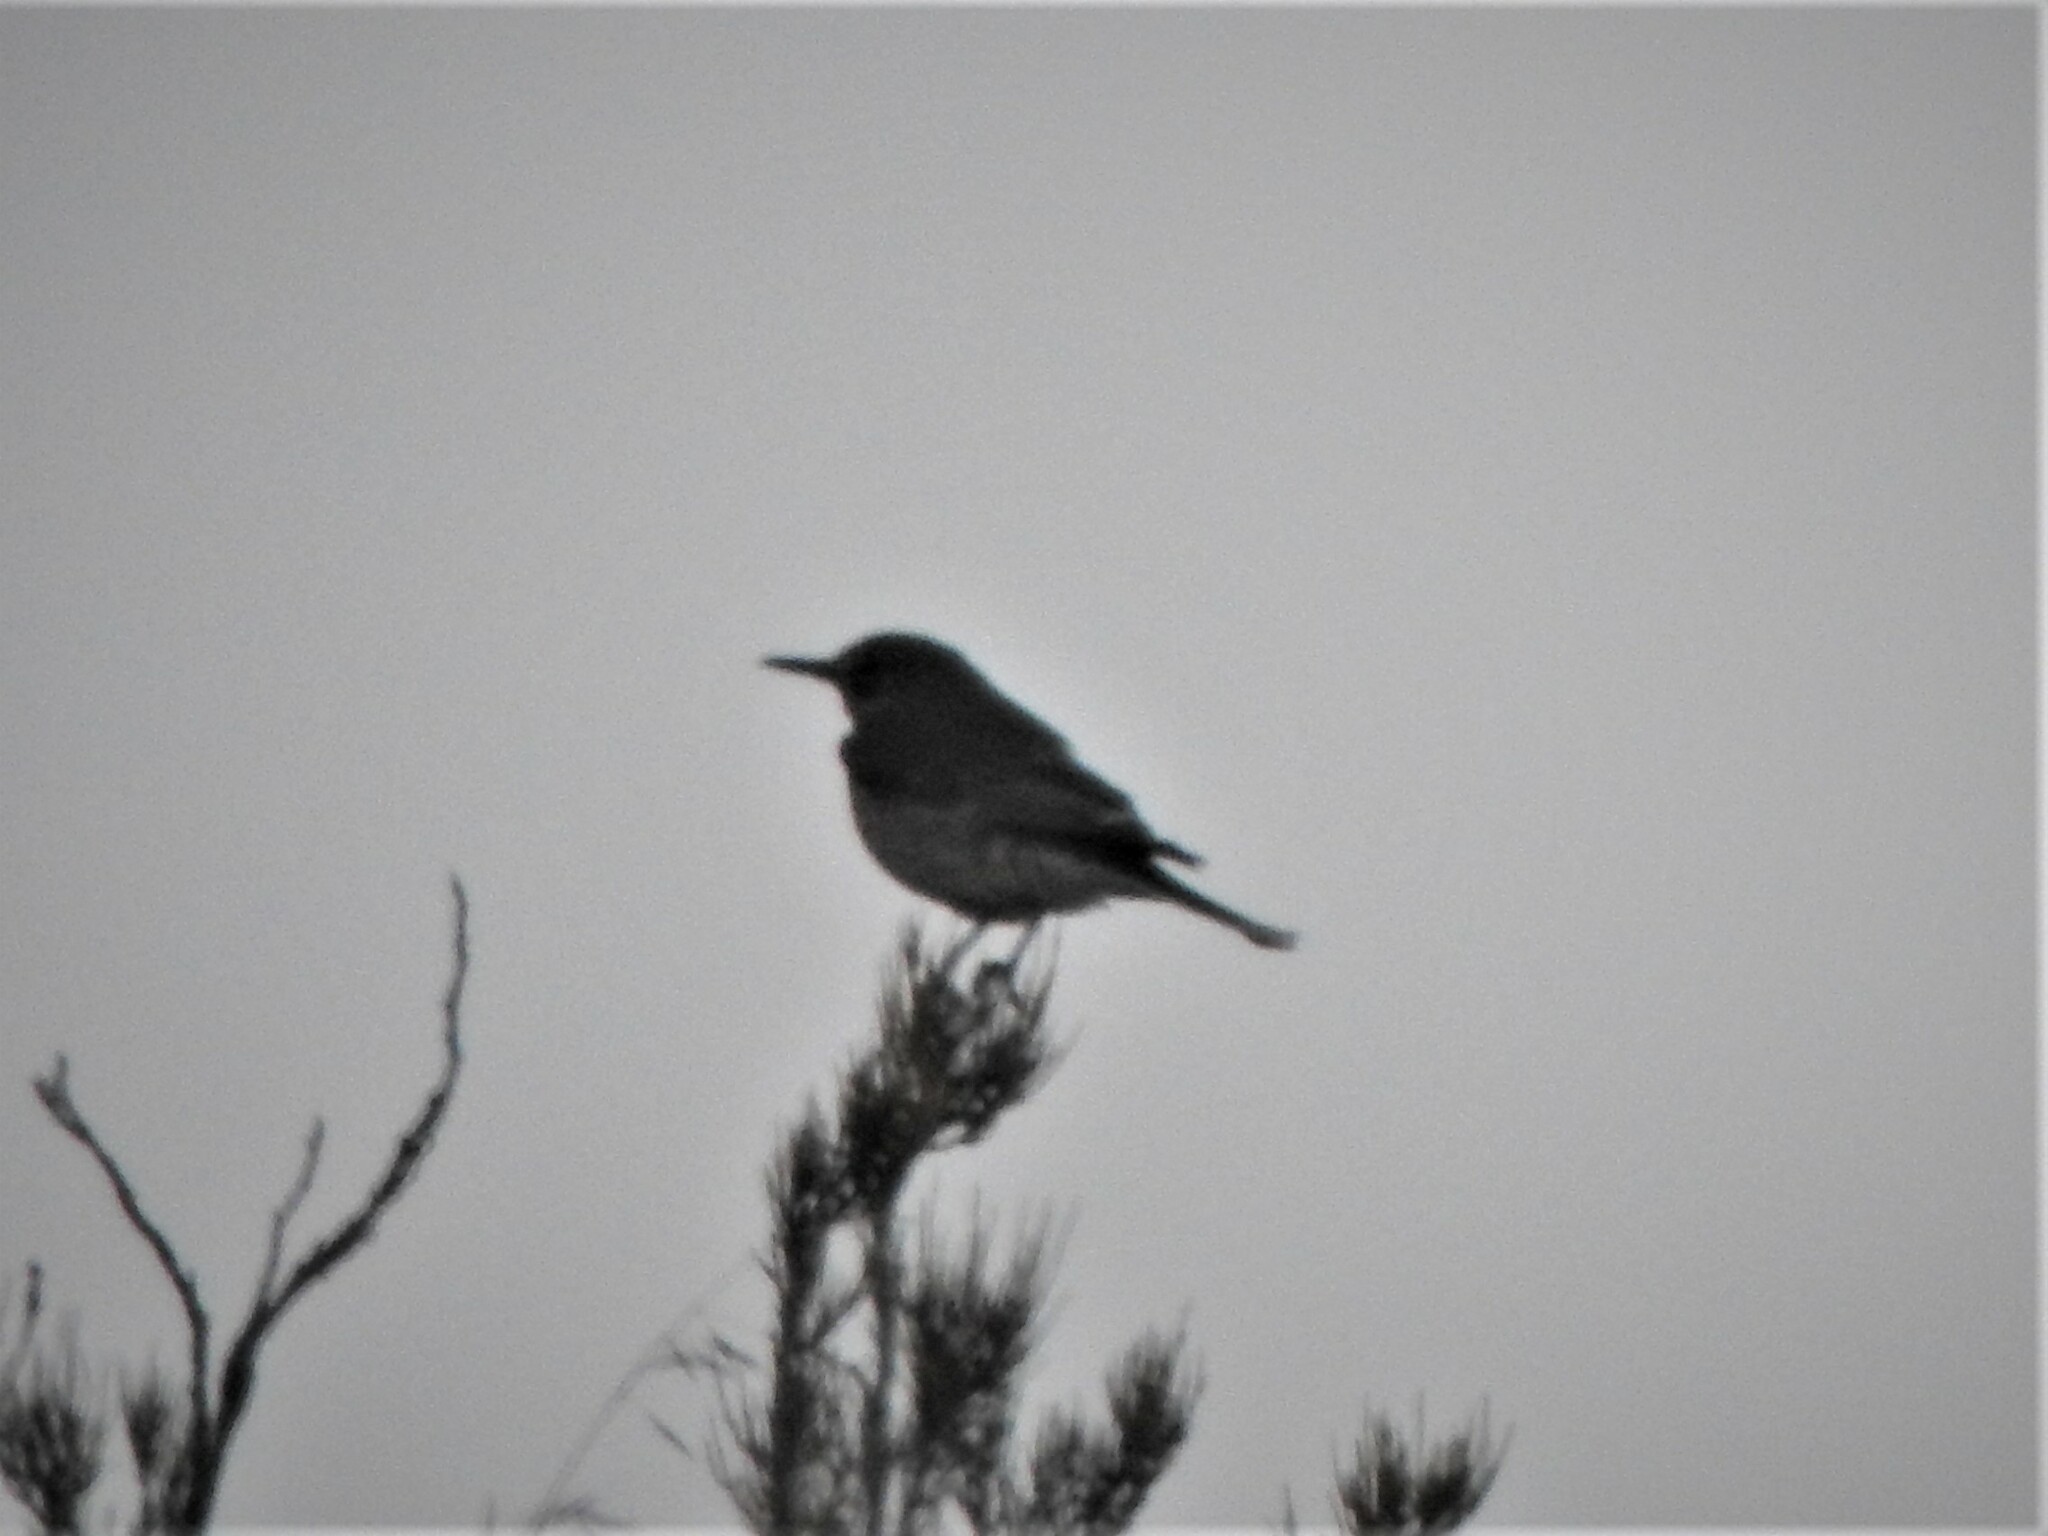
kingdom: Animalia
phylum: Chordata
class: Aves
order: Passeriformes
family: Tyrannidae
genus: Agriornis
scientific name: Agriornis montanus
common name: Black-billed shrike-tyrant
